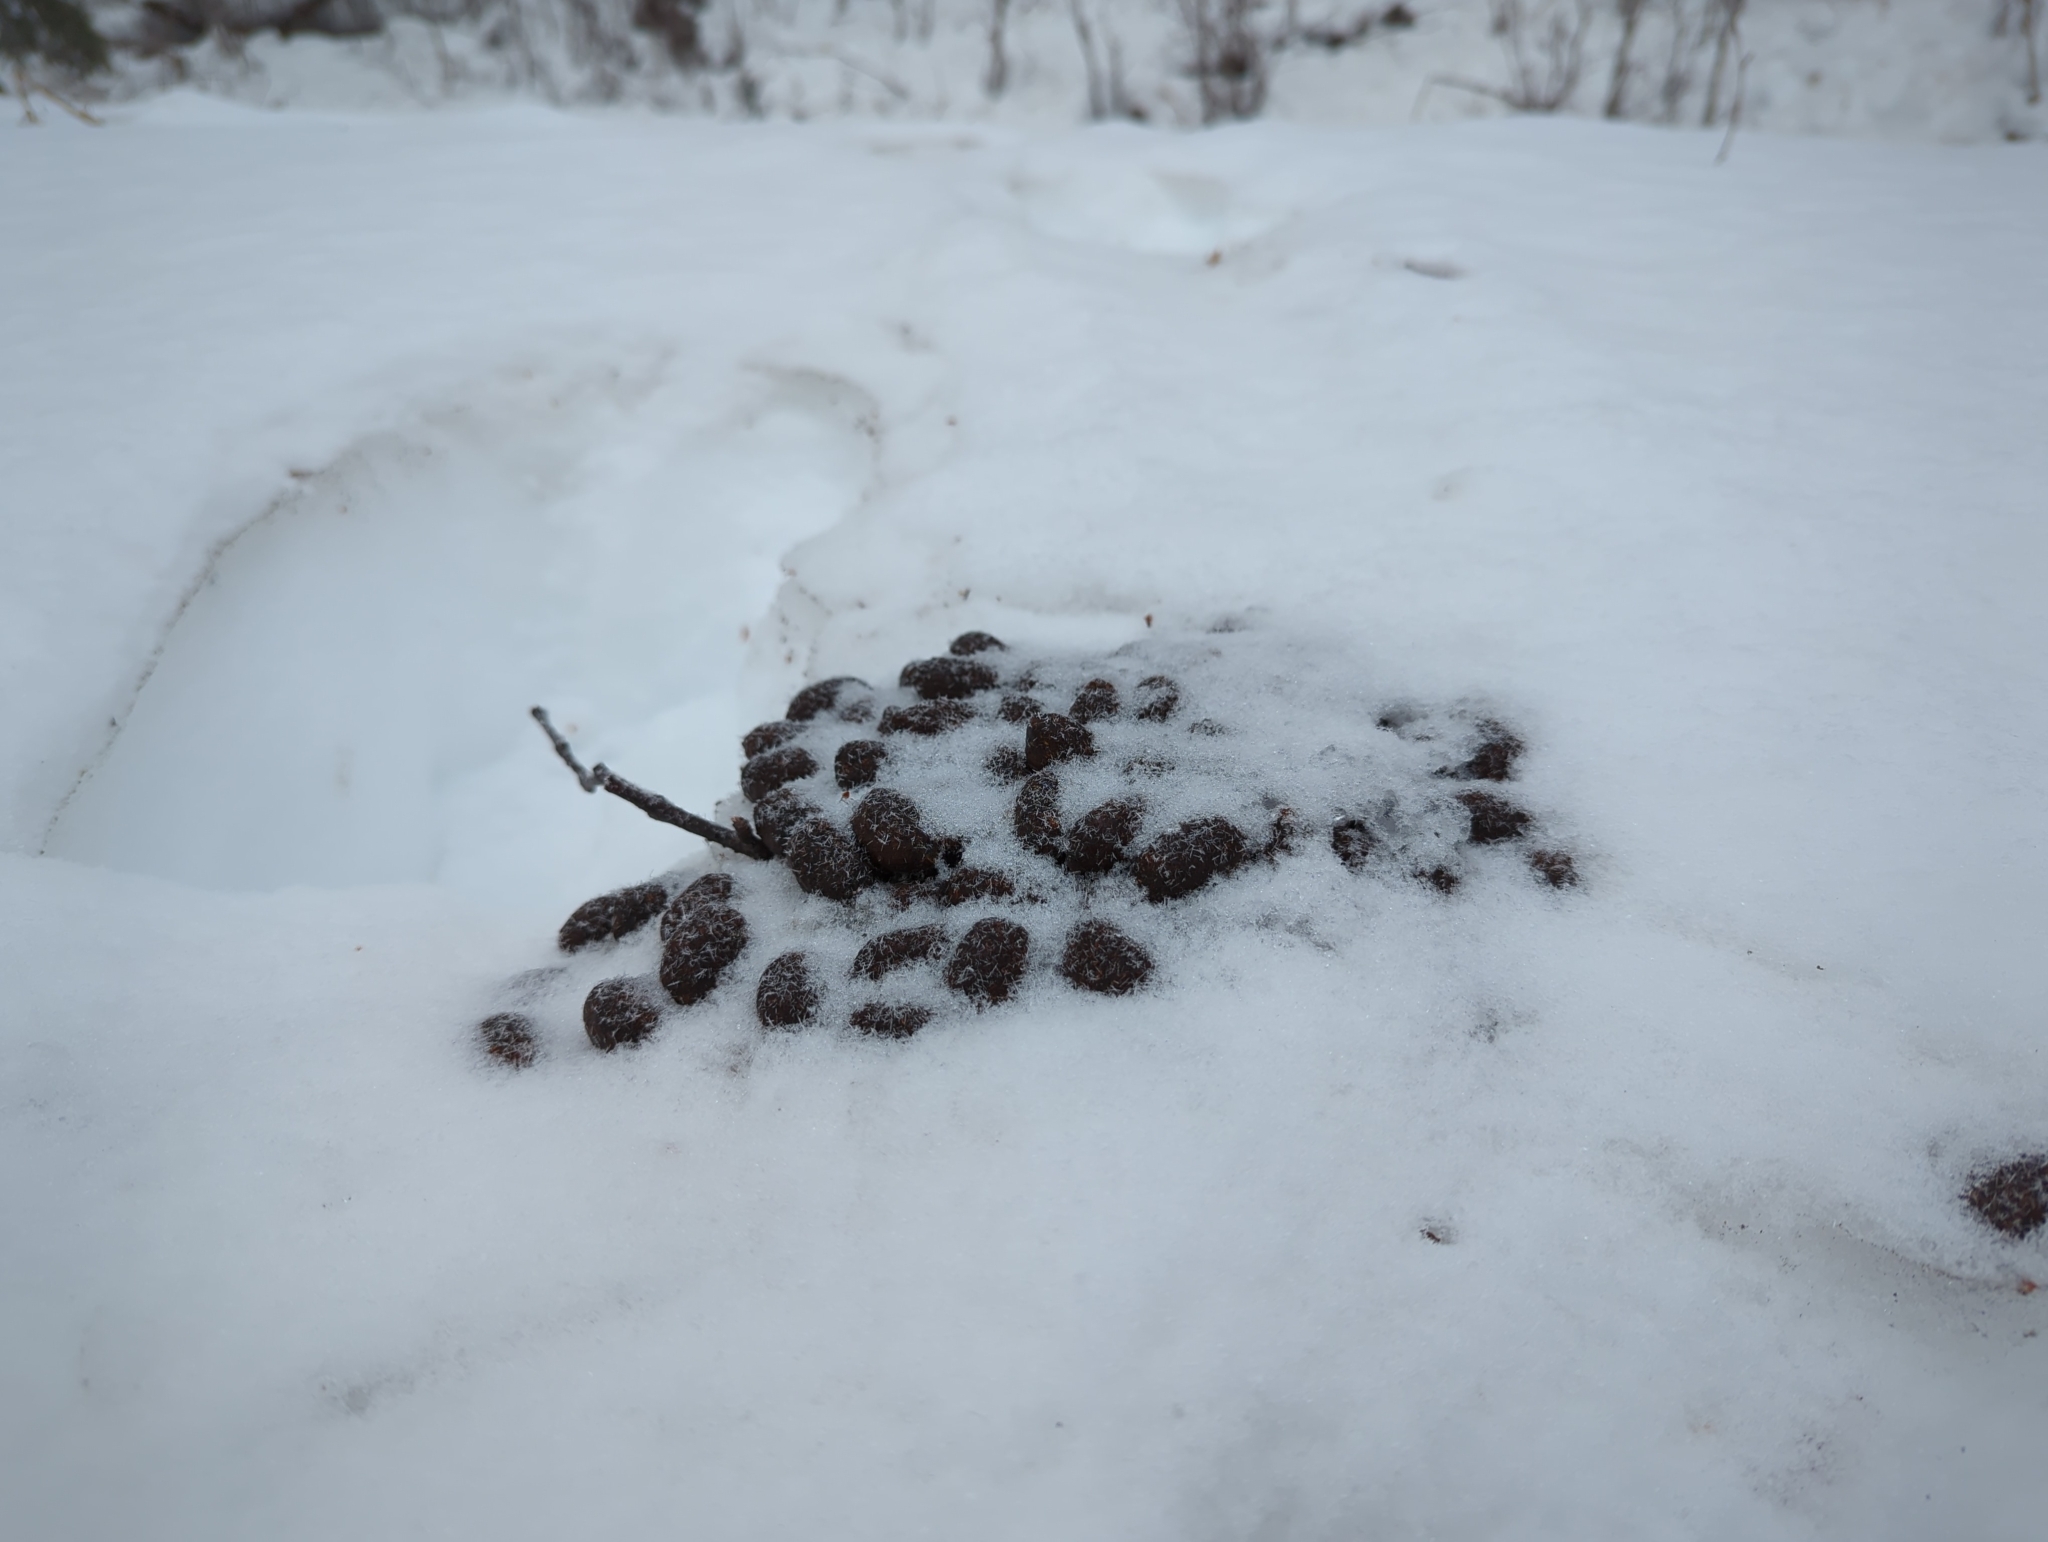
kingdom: Animalia
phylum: Chordata
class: Mammalia
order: Artiodactyla
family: Cervidae
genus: Alces
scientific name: Alces alces
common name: Moose
